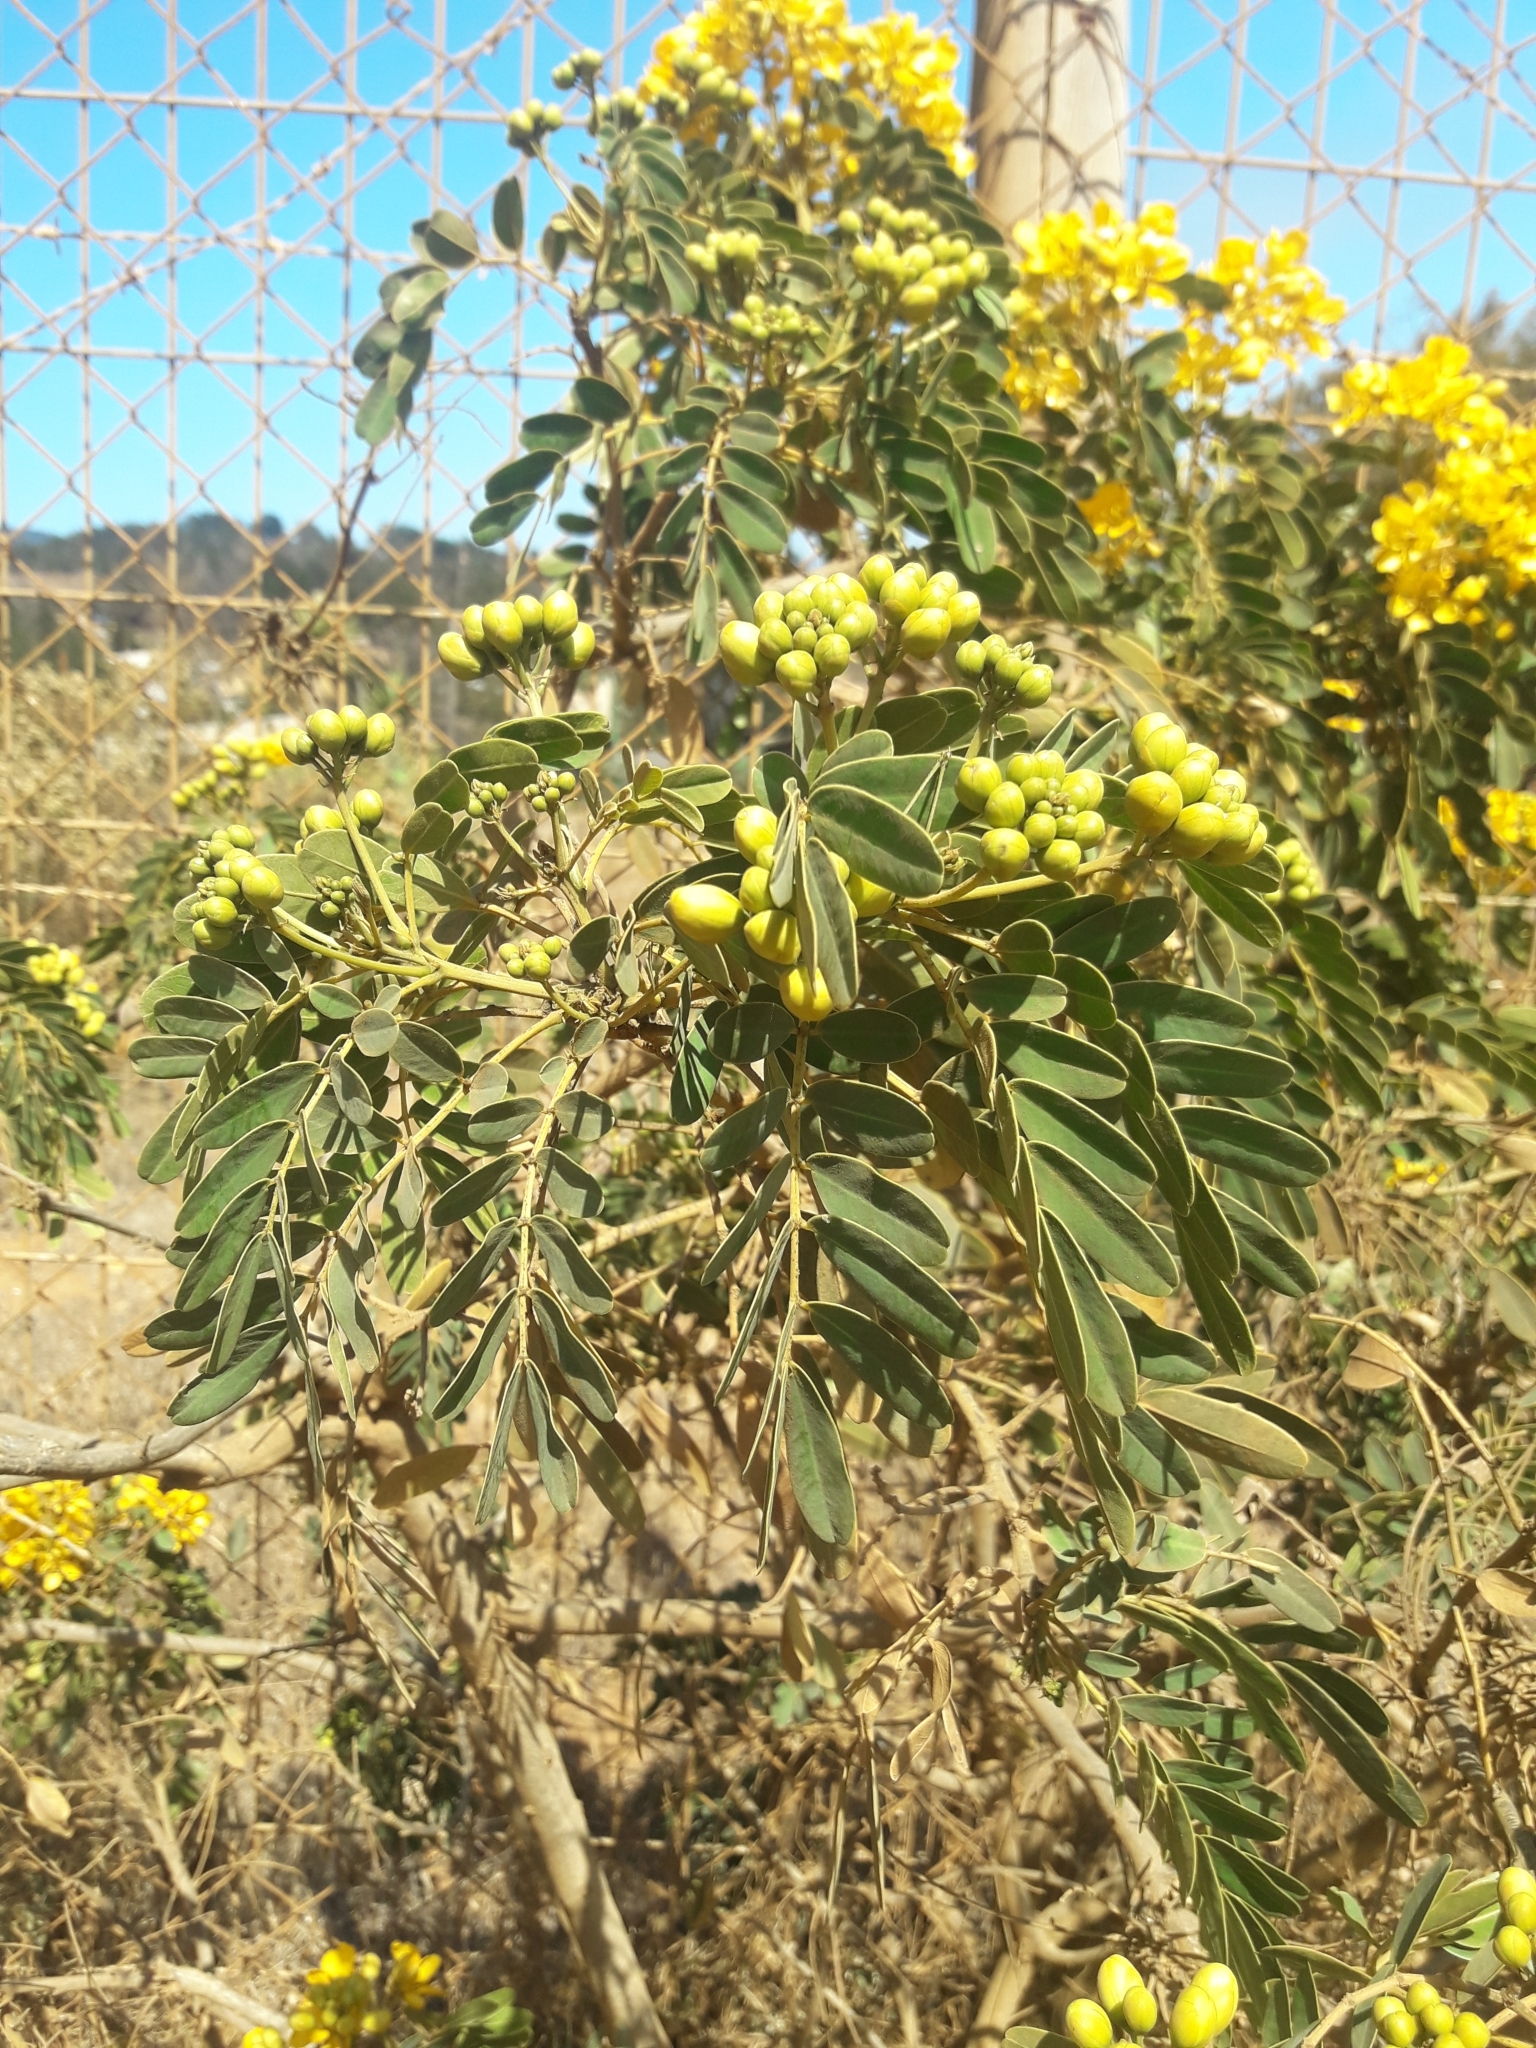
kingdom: Plantae
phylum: Tracheophyta
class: Magnoliopsida
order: Fabales
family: Fabaceae
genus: Senna
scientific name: Senna candolleana
